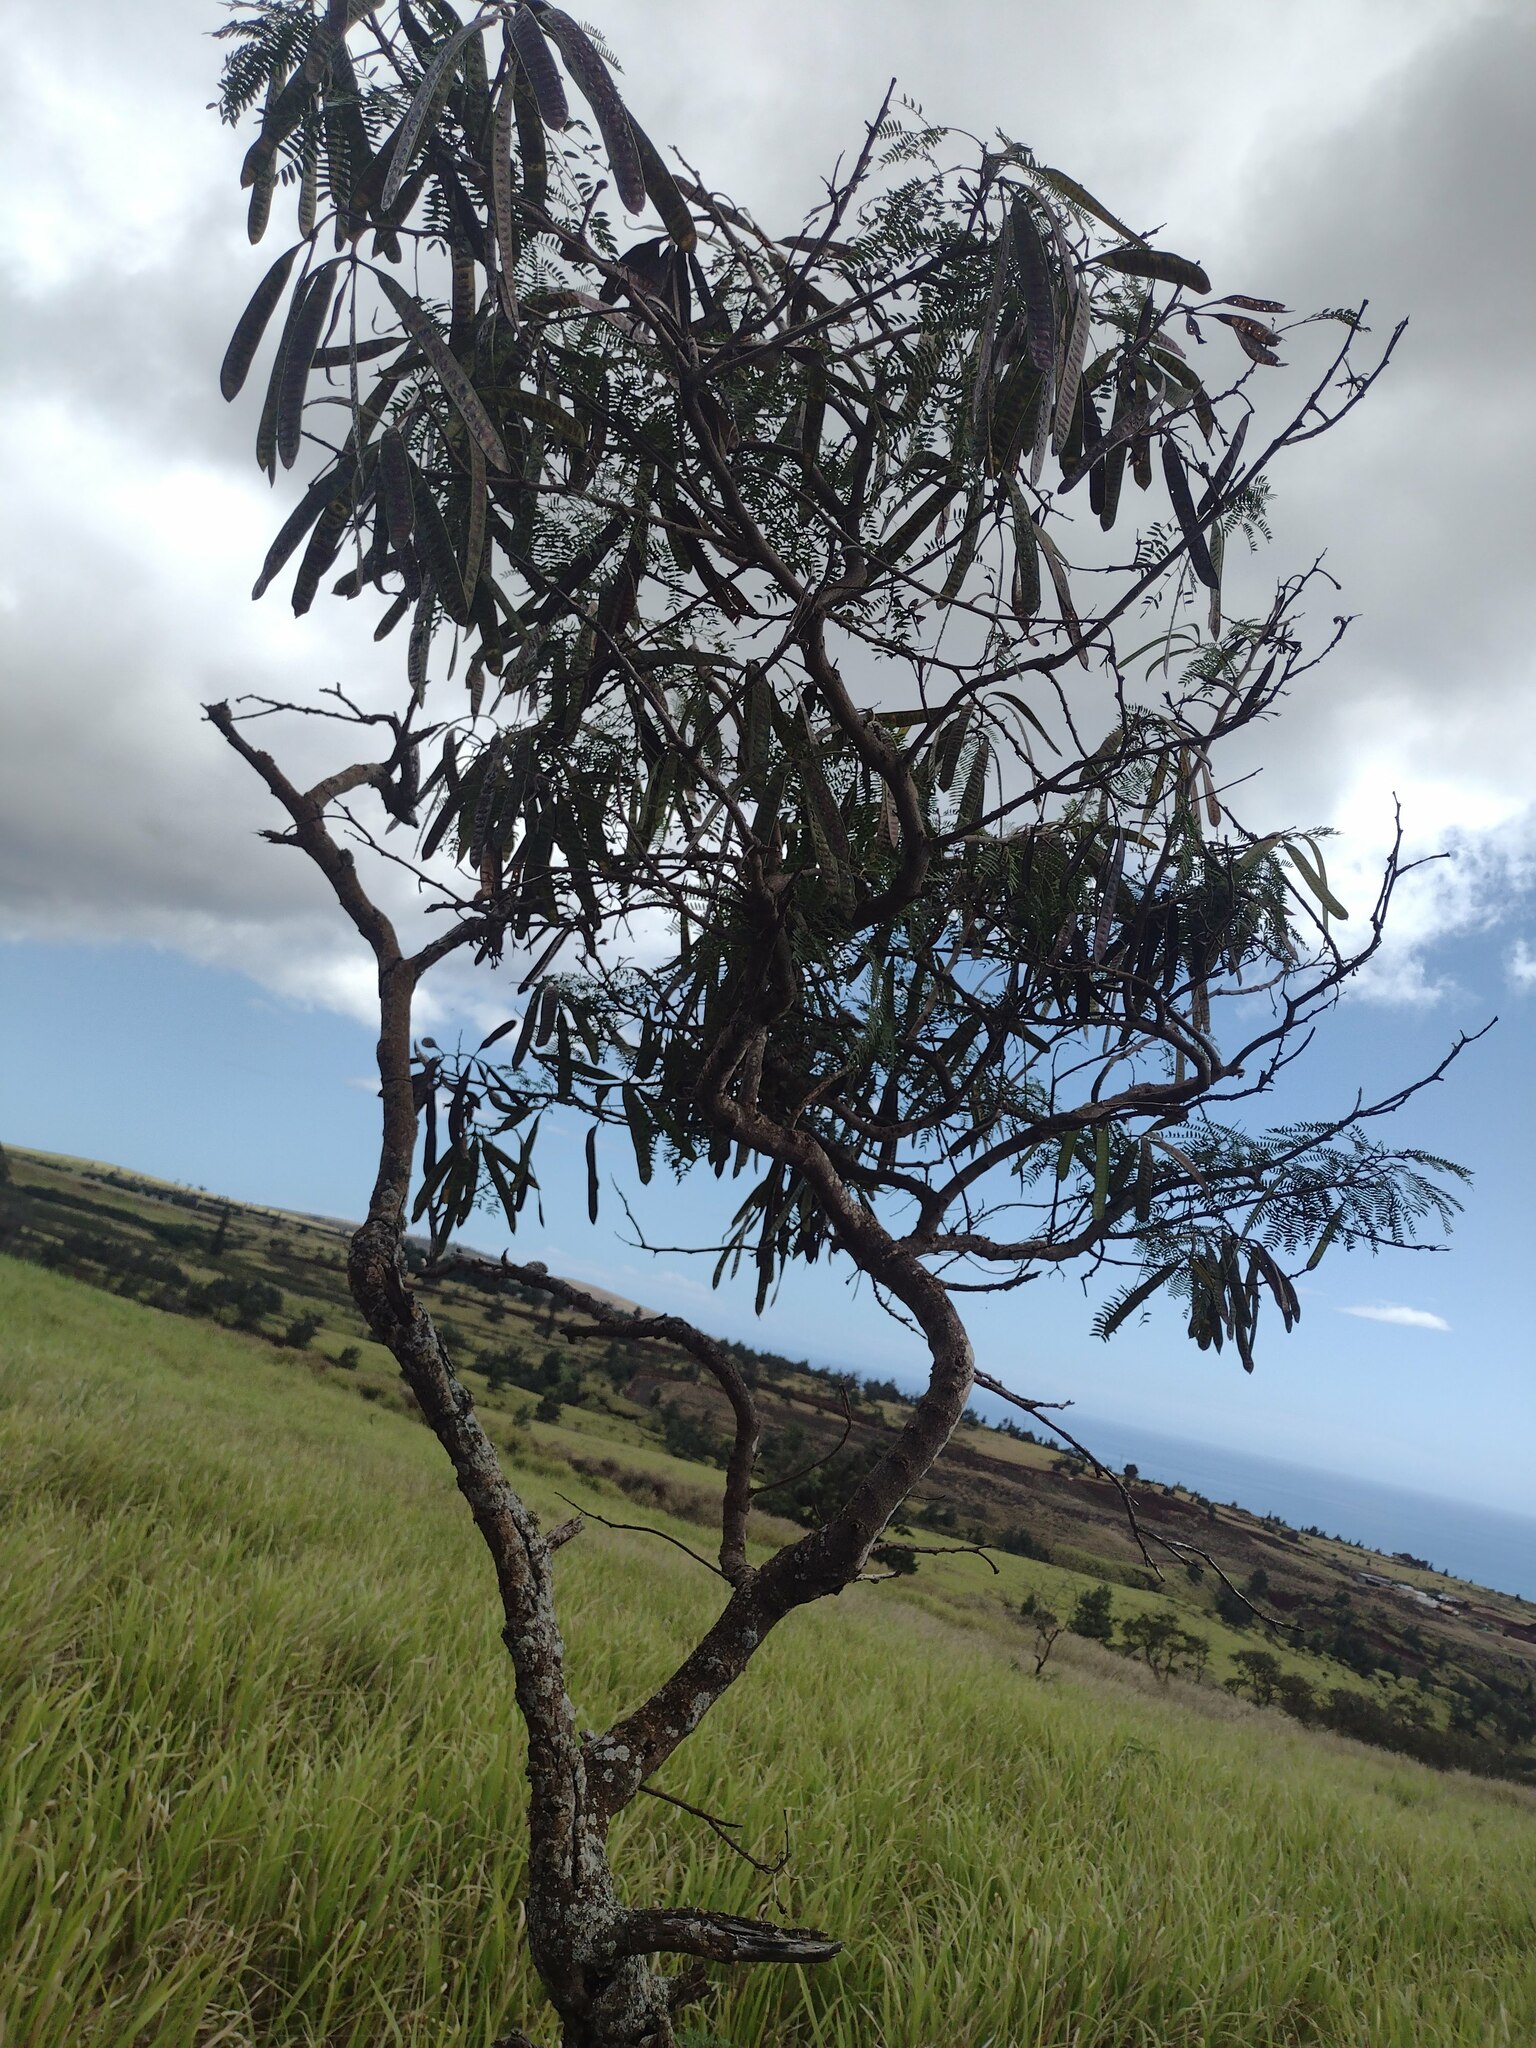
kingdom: Plantae
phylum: Tracheophyta
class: Magnoliopsida
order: Fabales
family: Fabaceae
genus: Leucaena
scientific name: Leucaena leucocephala
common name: White leadtree
